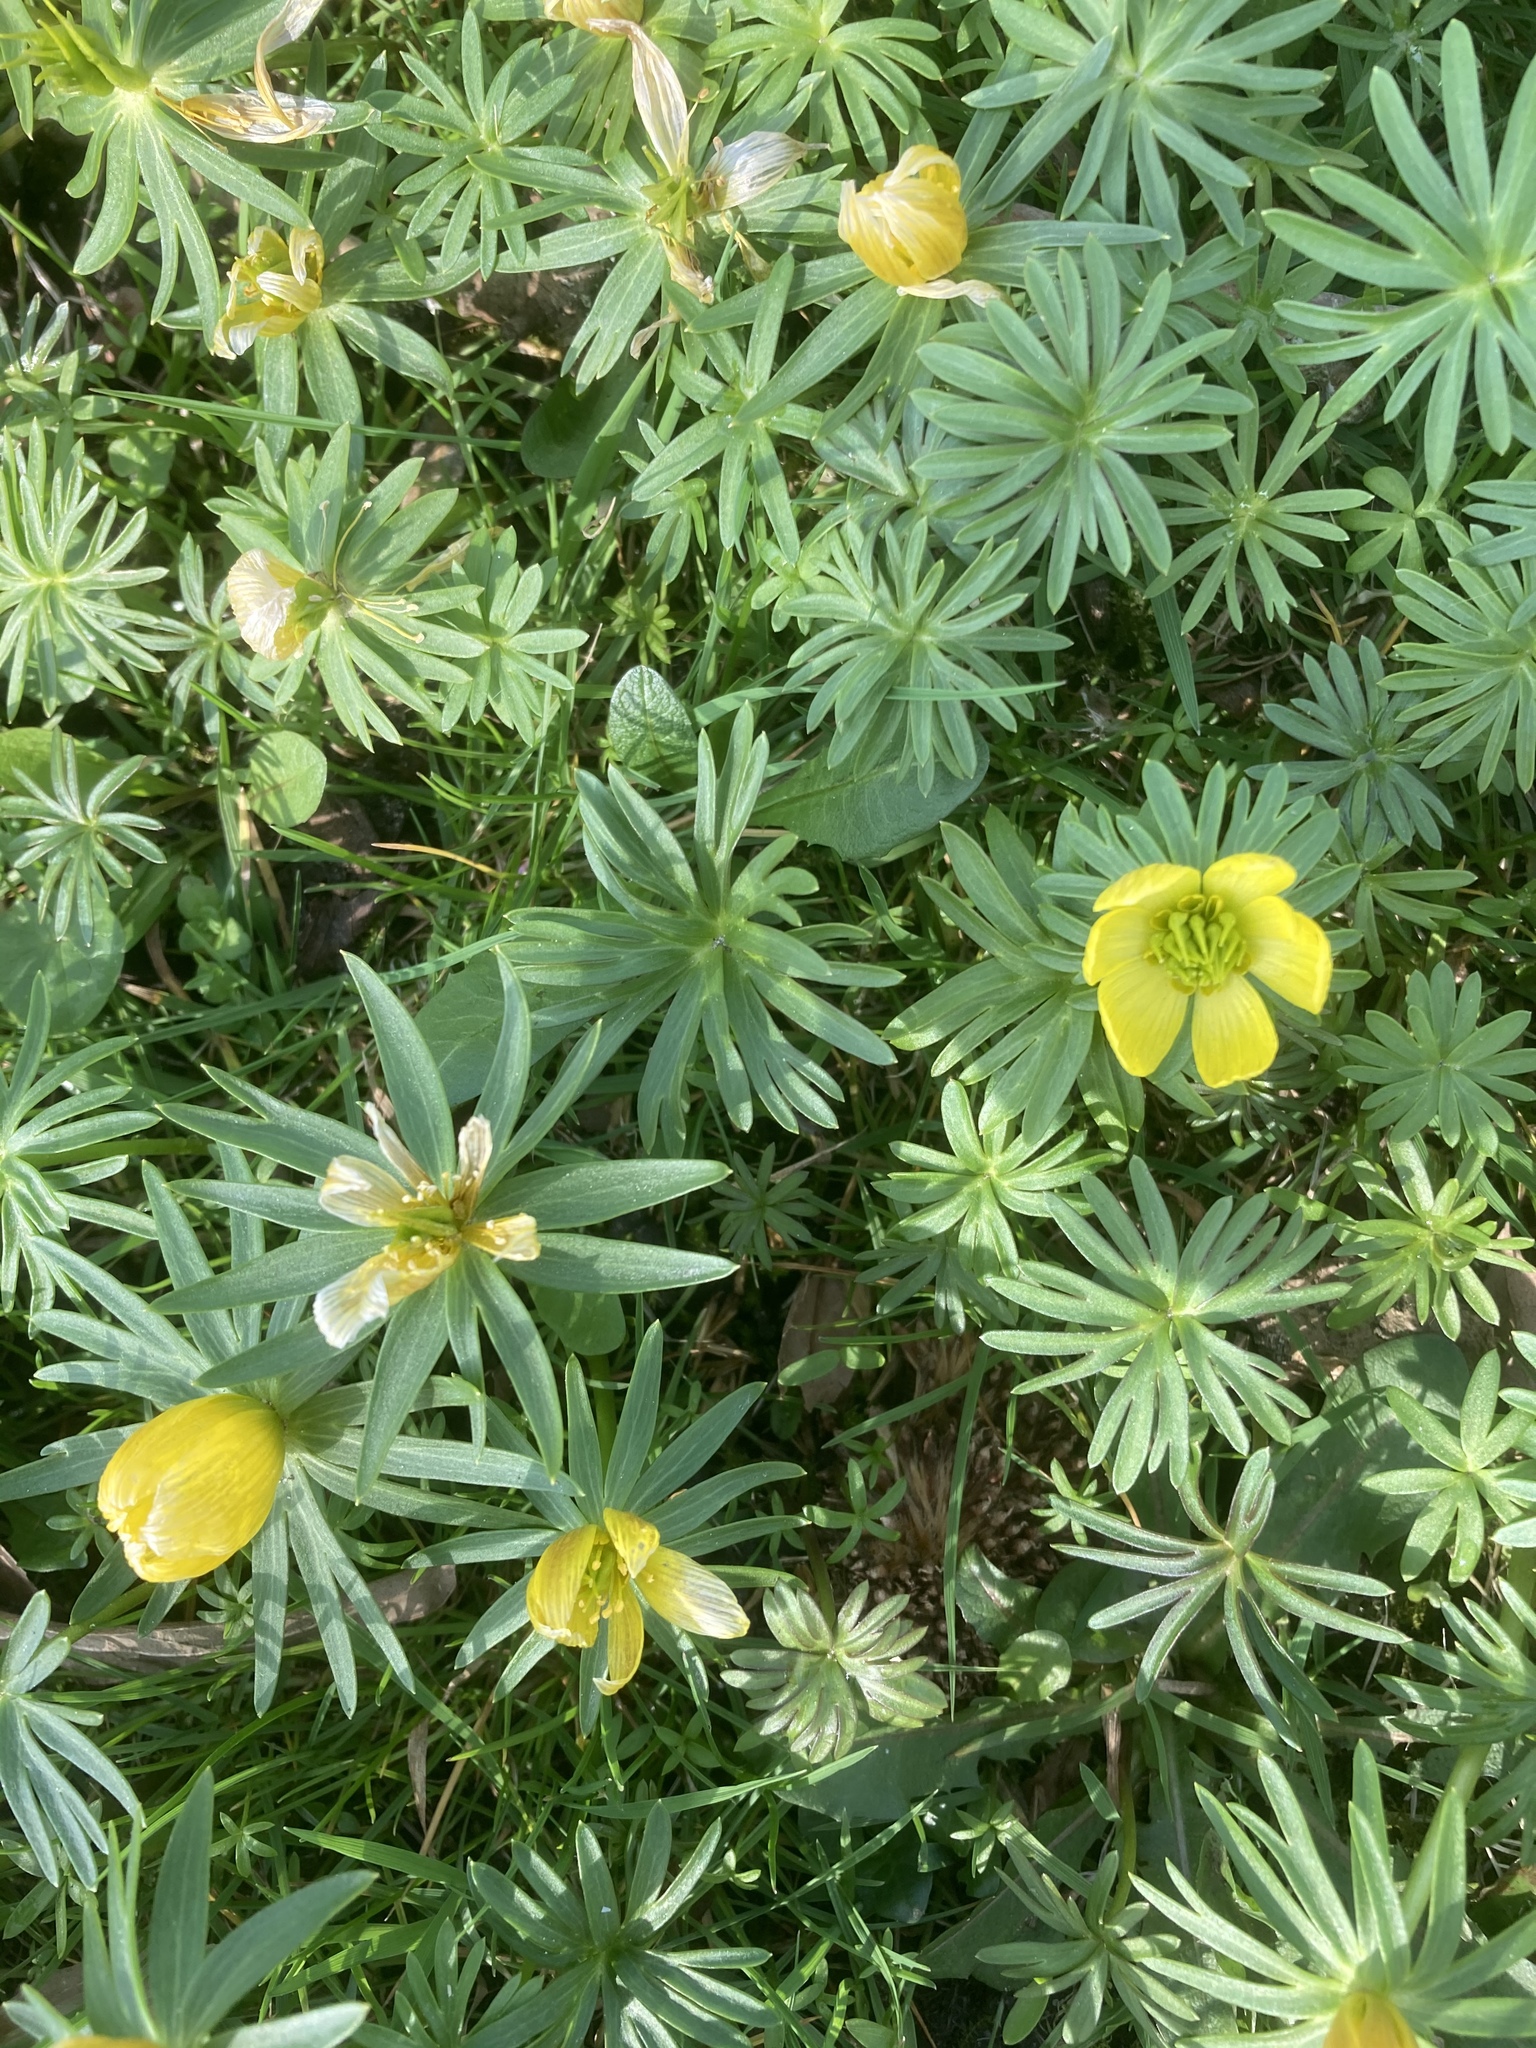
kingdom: Plantae
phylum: Tracheophyta
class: Magnoliopsida
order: Ranunculales
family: Ranunculaceae
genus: Eranthis
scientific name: Eranthis cilicica
